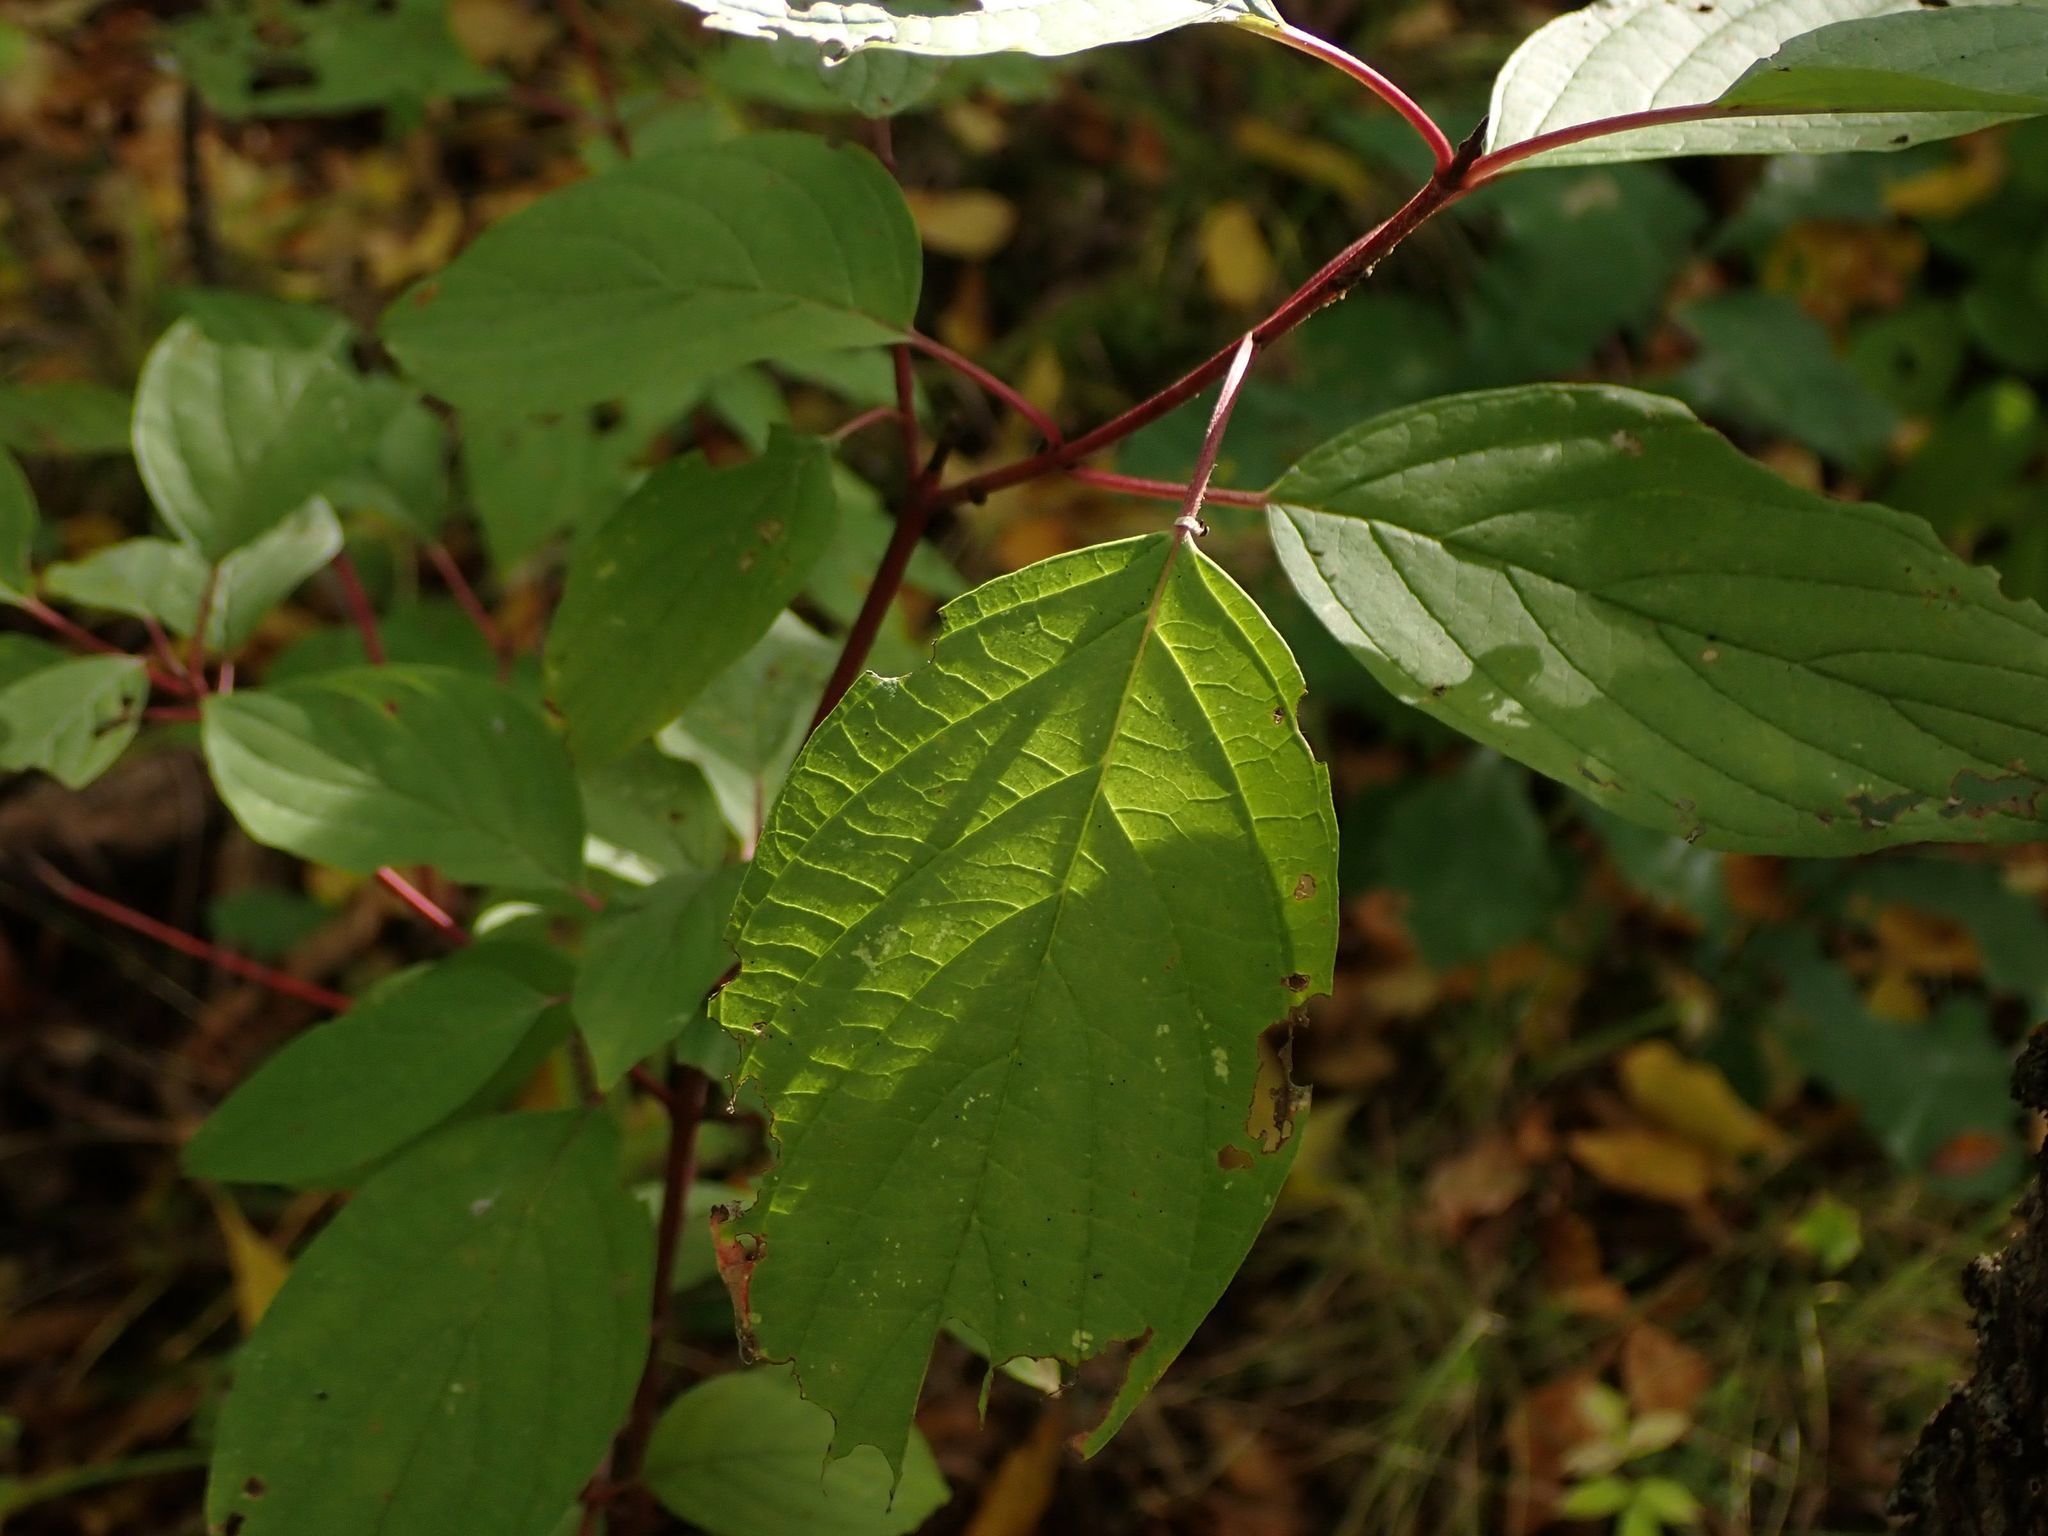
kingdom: Plantae
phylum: Tracheophyta
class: Magnoliopsida
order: Cornales
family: Cornaceae
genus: Cornus
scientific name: Cornus sericea
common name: Red-osier dogwood
